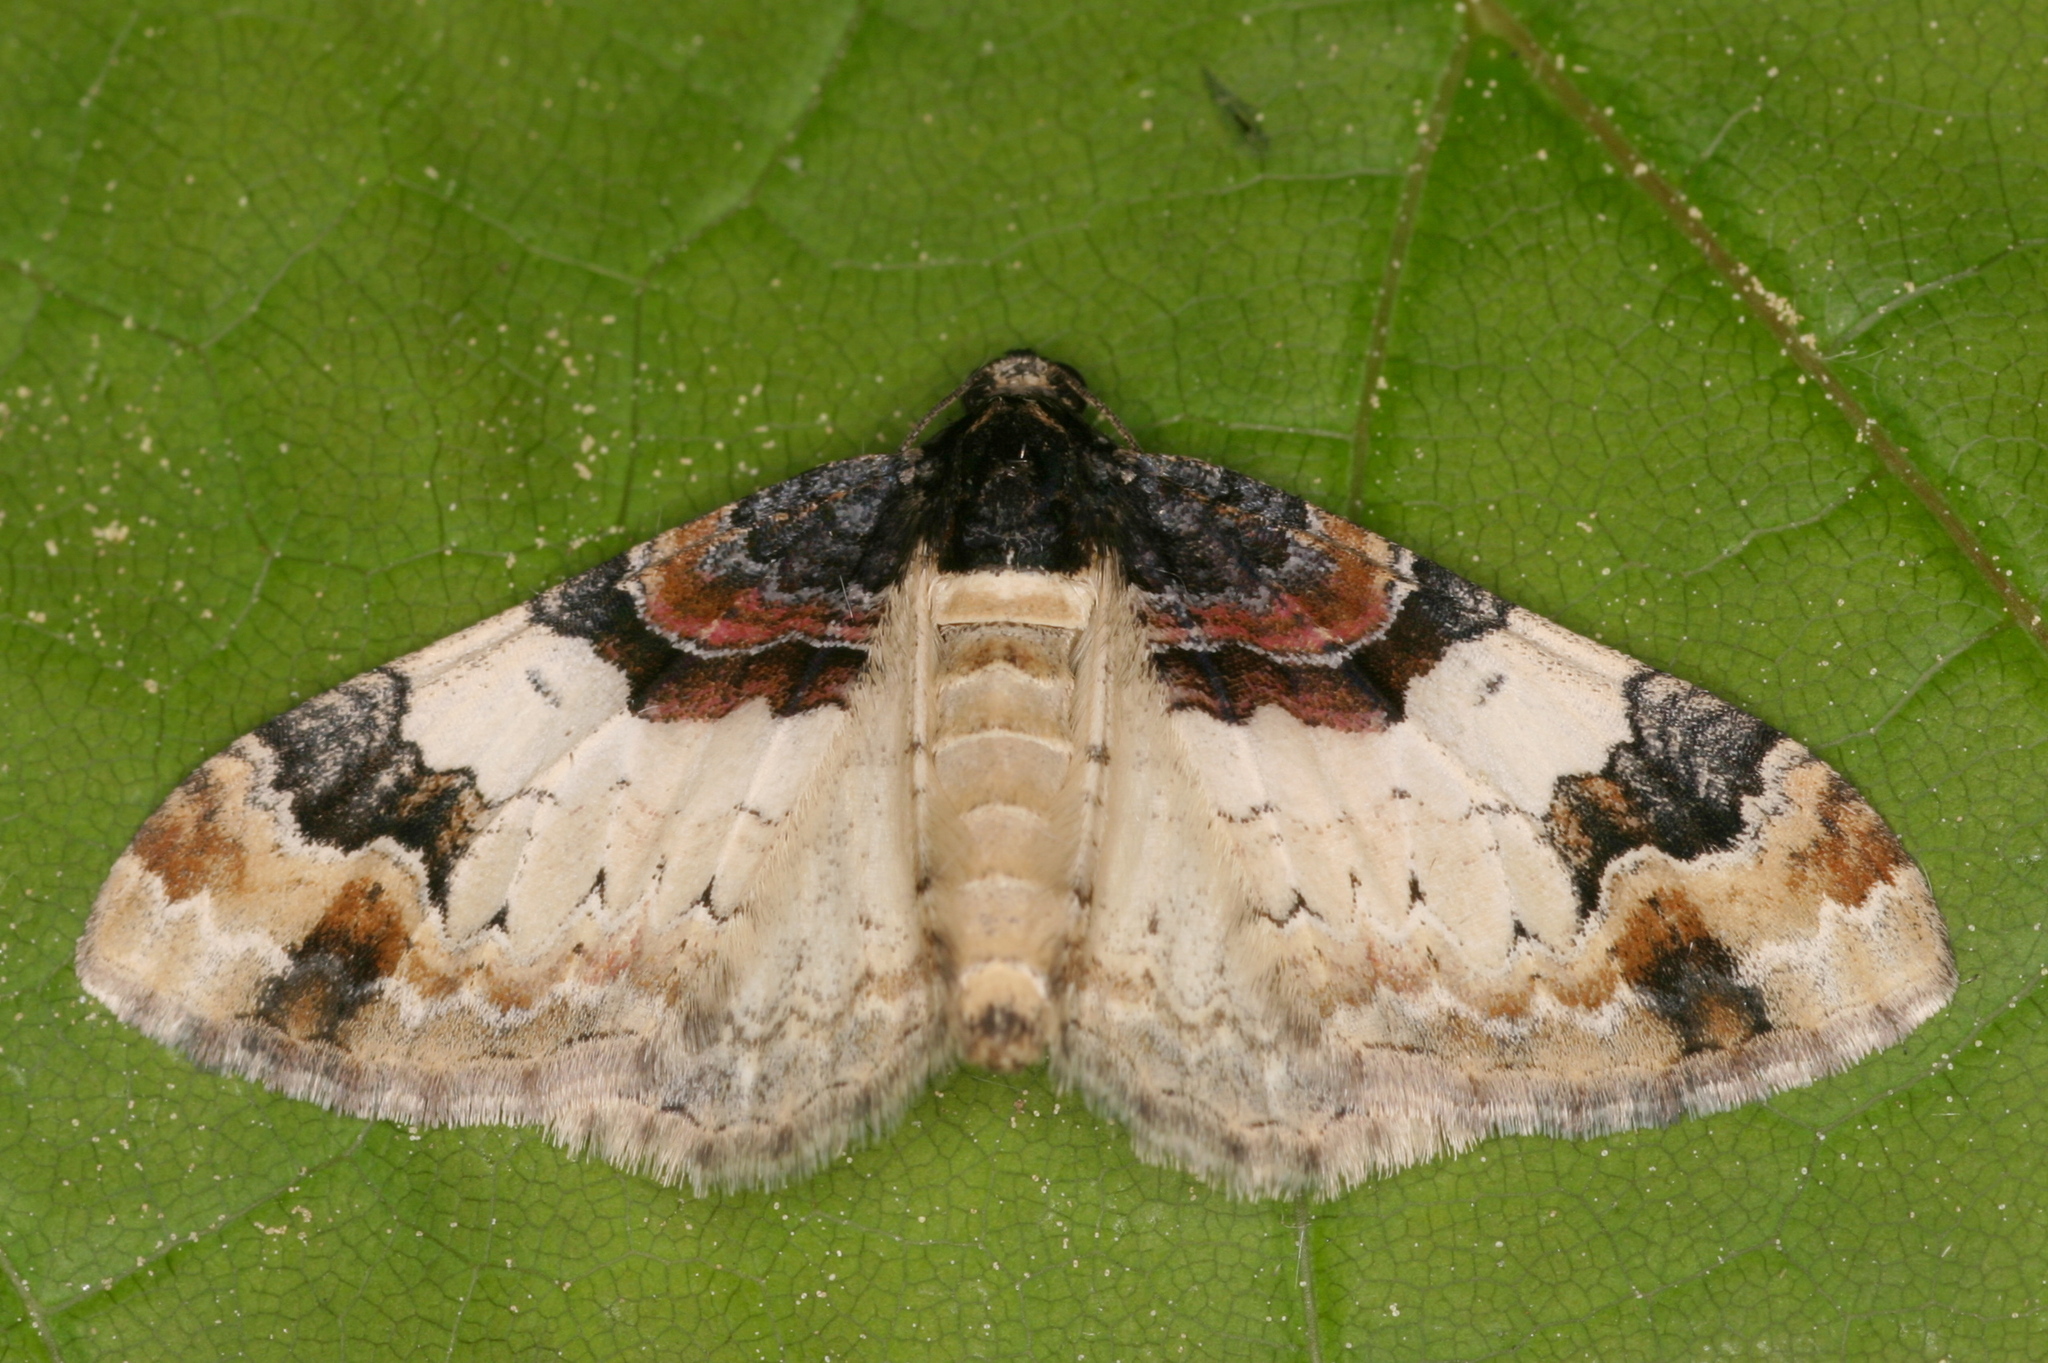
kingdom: Animalia
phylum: Arthropoda
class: Insecta
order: Lepidoptera
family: Geometridae
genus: Catarhoe
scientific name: Catarhoe cuculata
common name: Royal mantle
